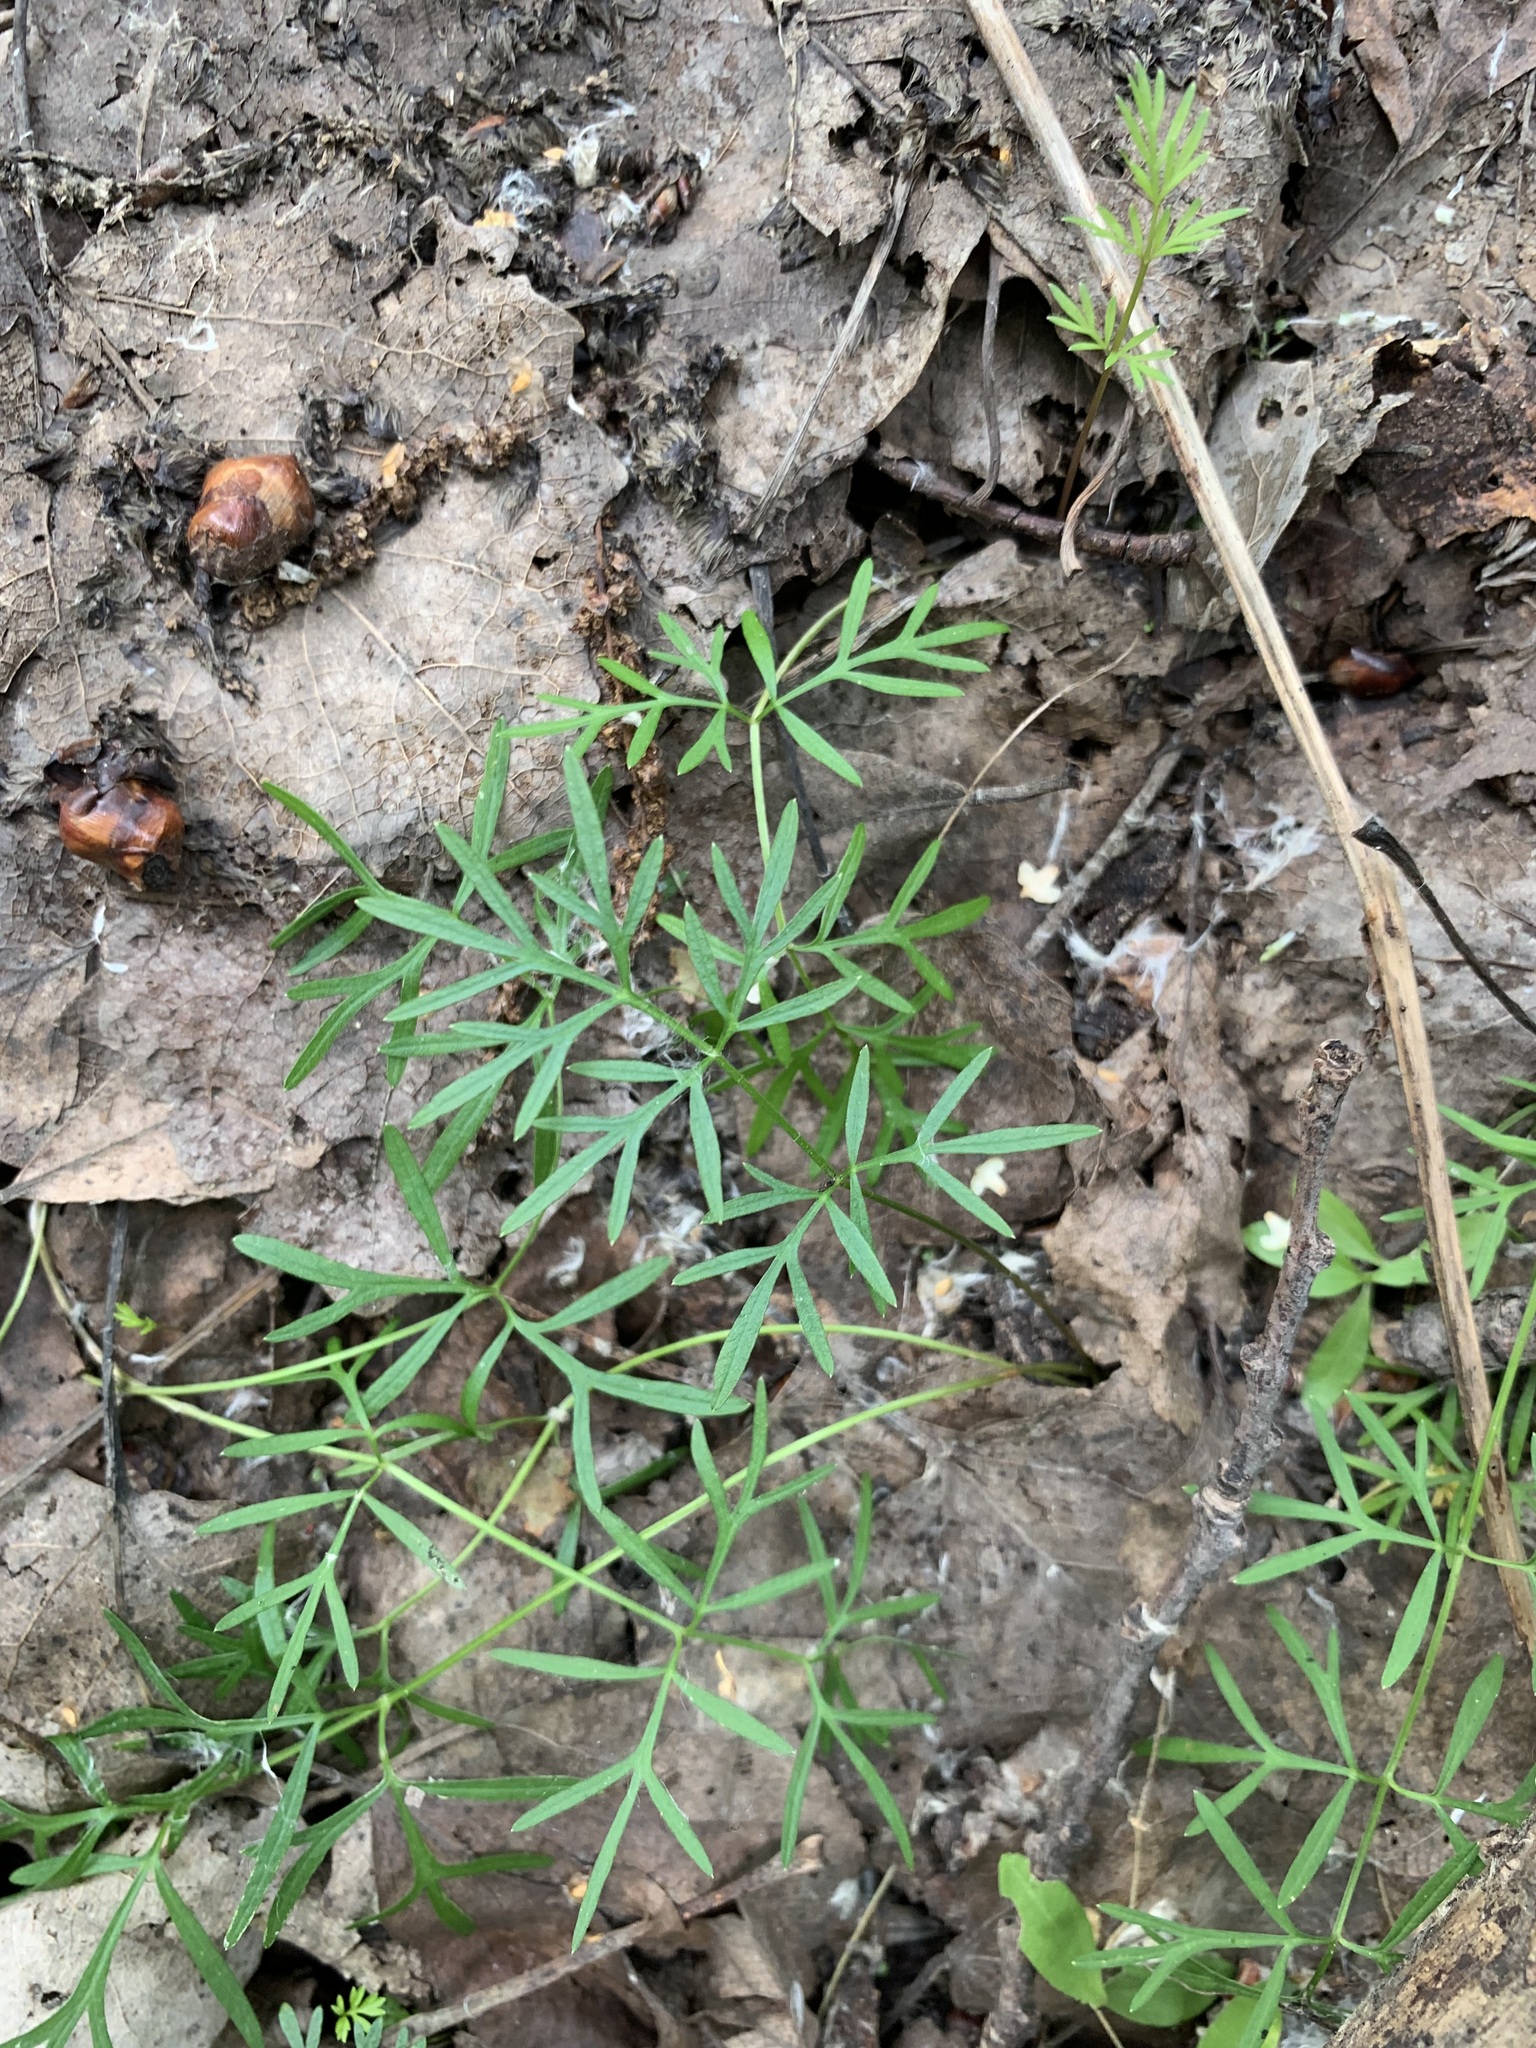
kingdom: Plantae
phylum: Tracheophyta
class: Magnoliopsida
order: Apiales
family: Apiaceae
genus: Kadenia
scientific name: Kadenia dubia
